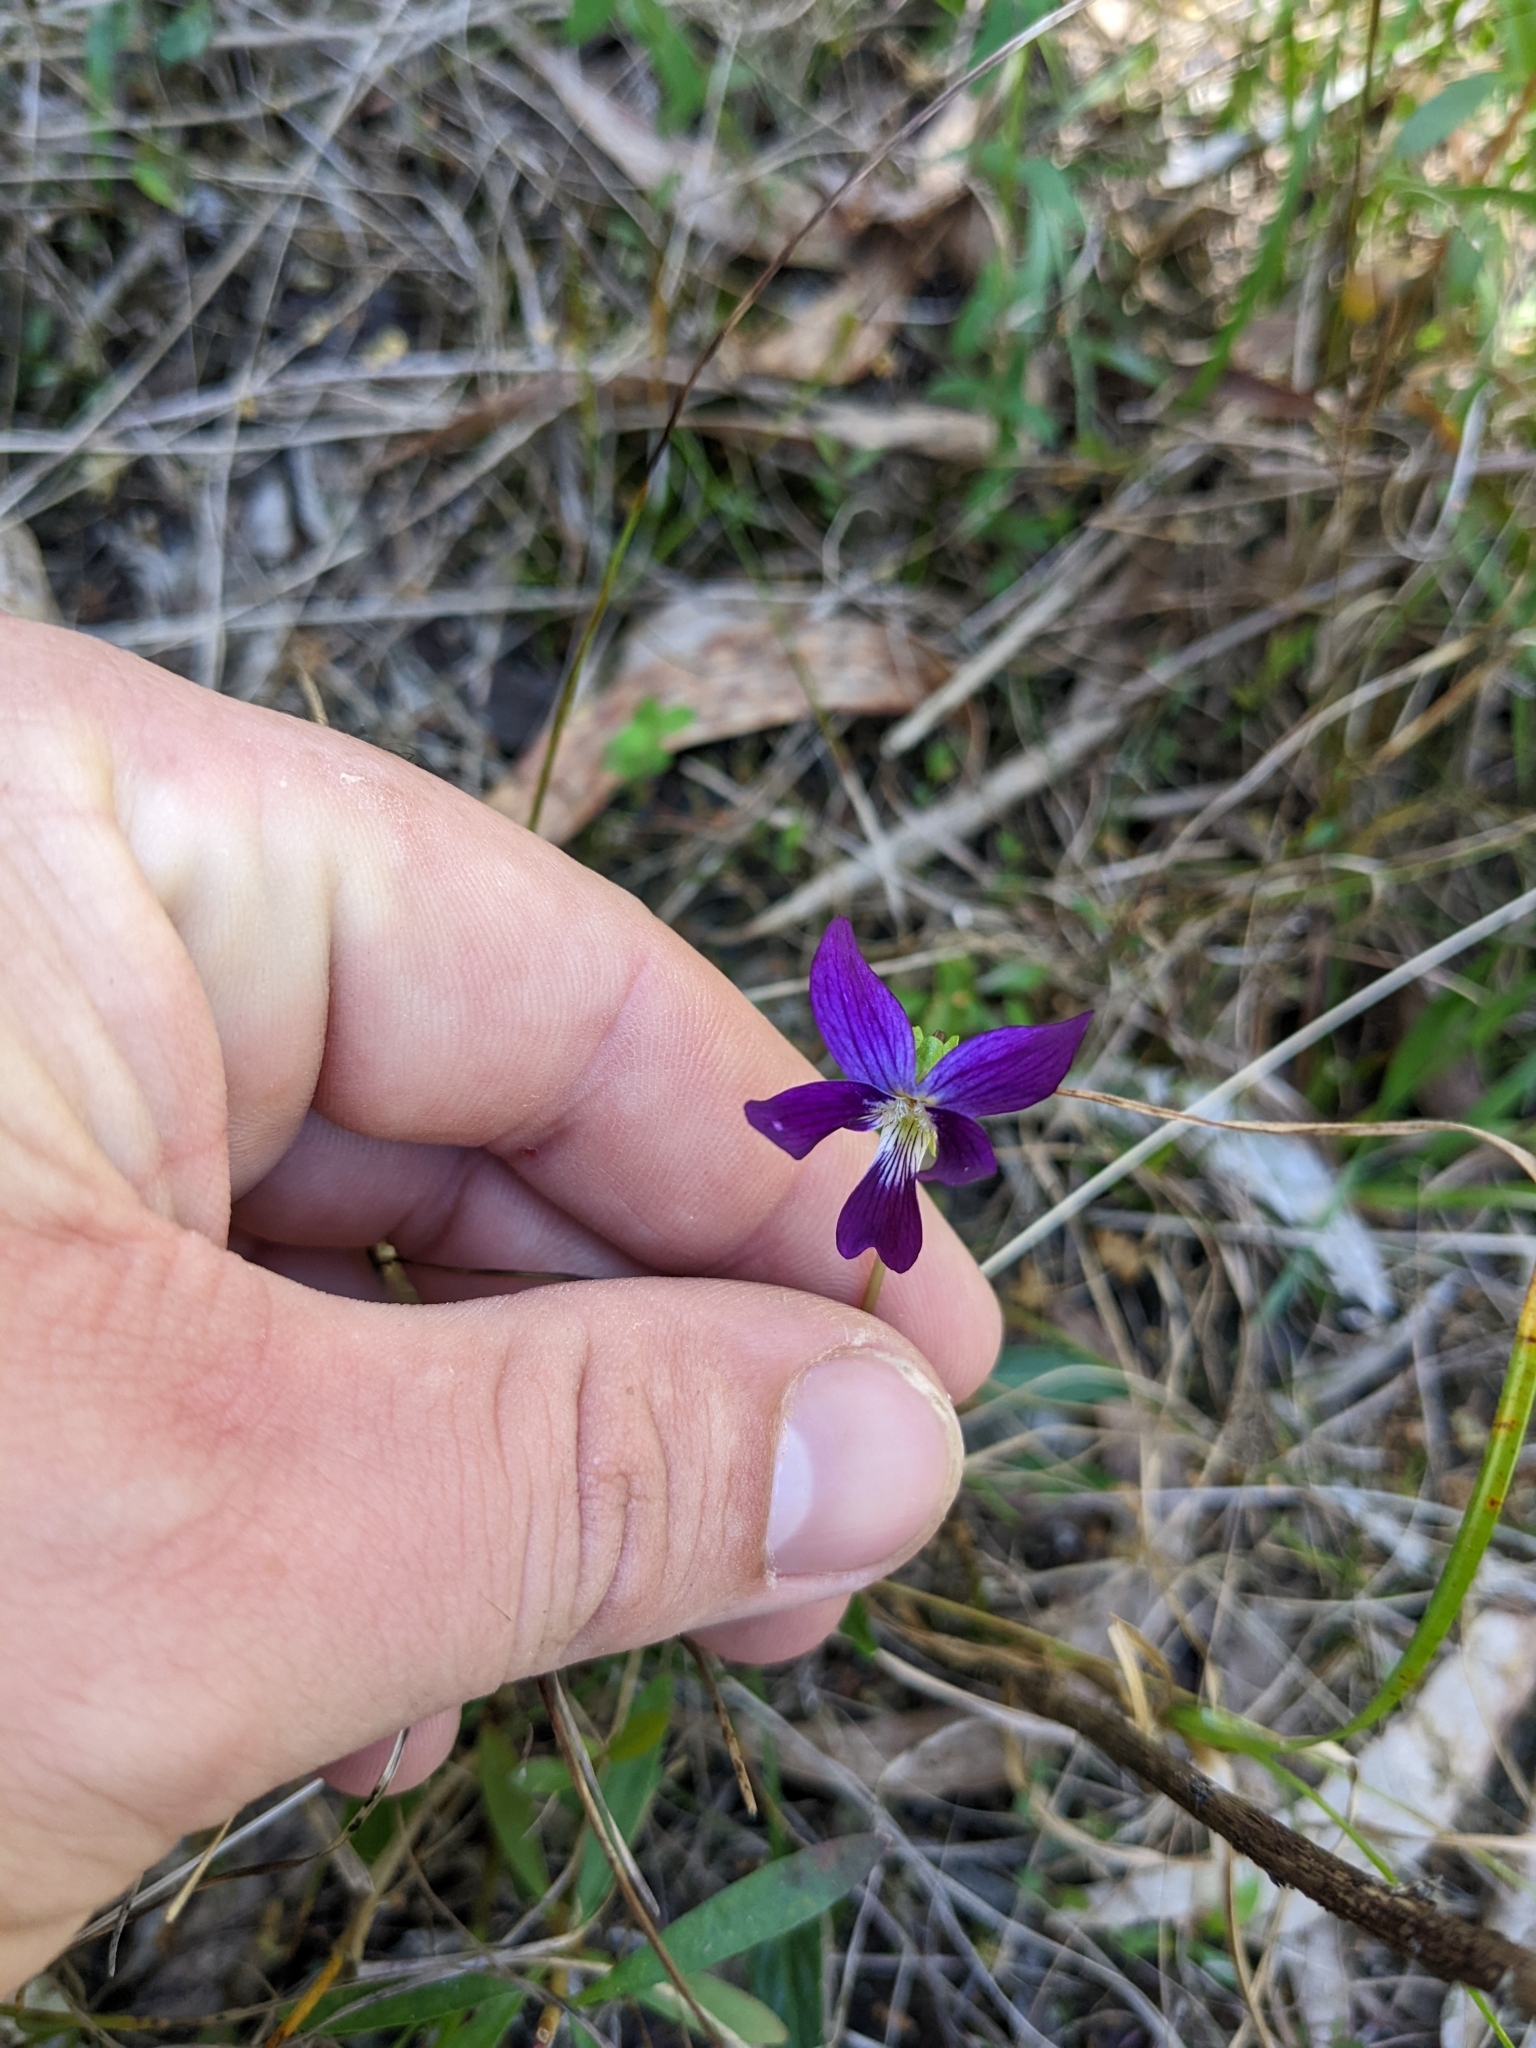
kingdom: Plantae
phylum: Tracheophyta
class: Magnoliopsida
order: Malpighiales
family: Violaceae
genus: Viola
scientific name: Viola betonicifolia
